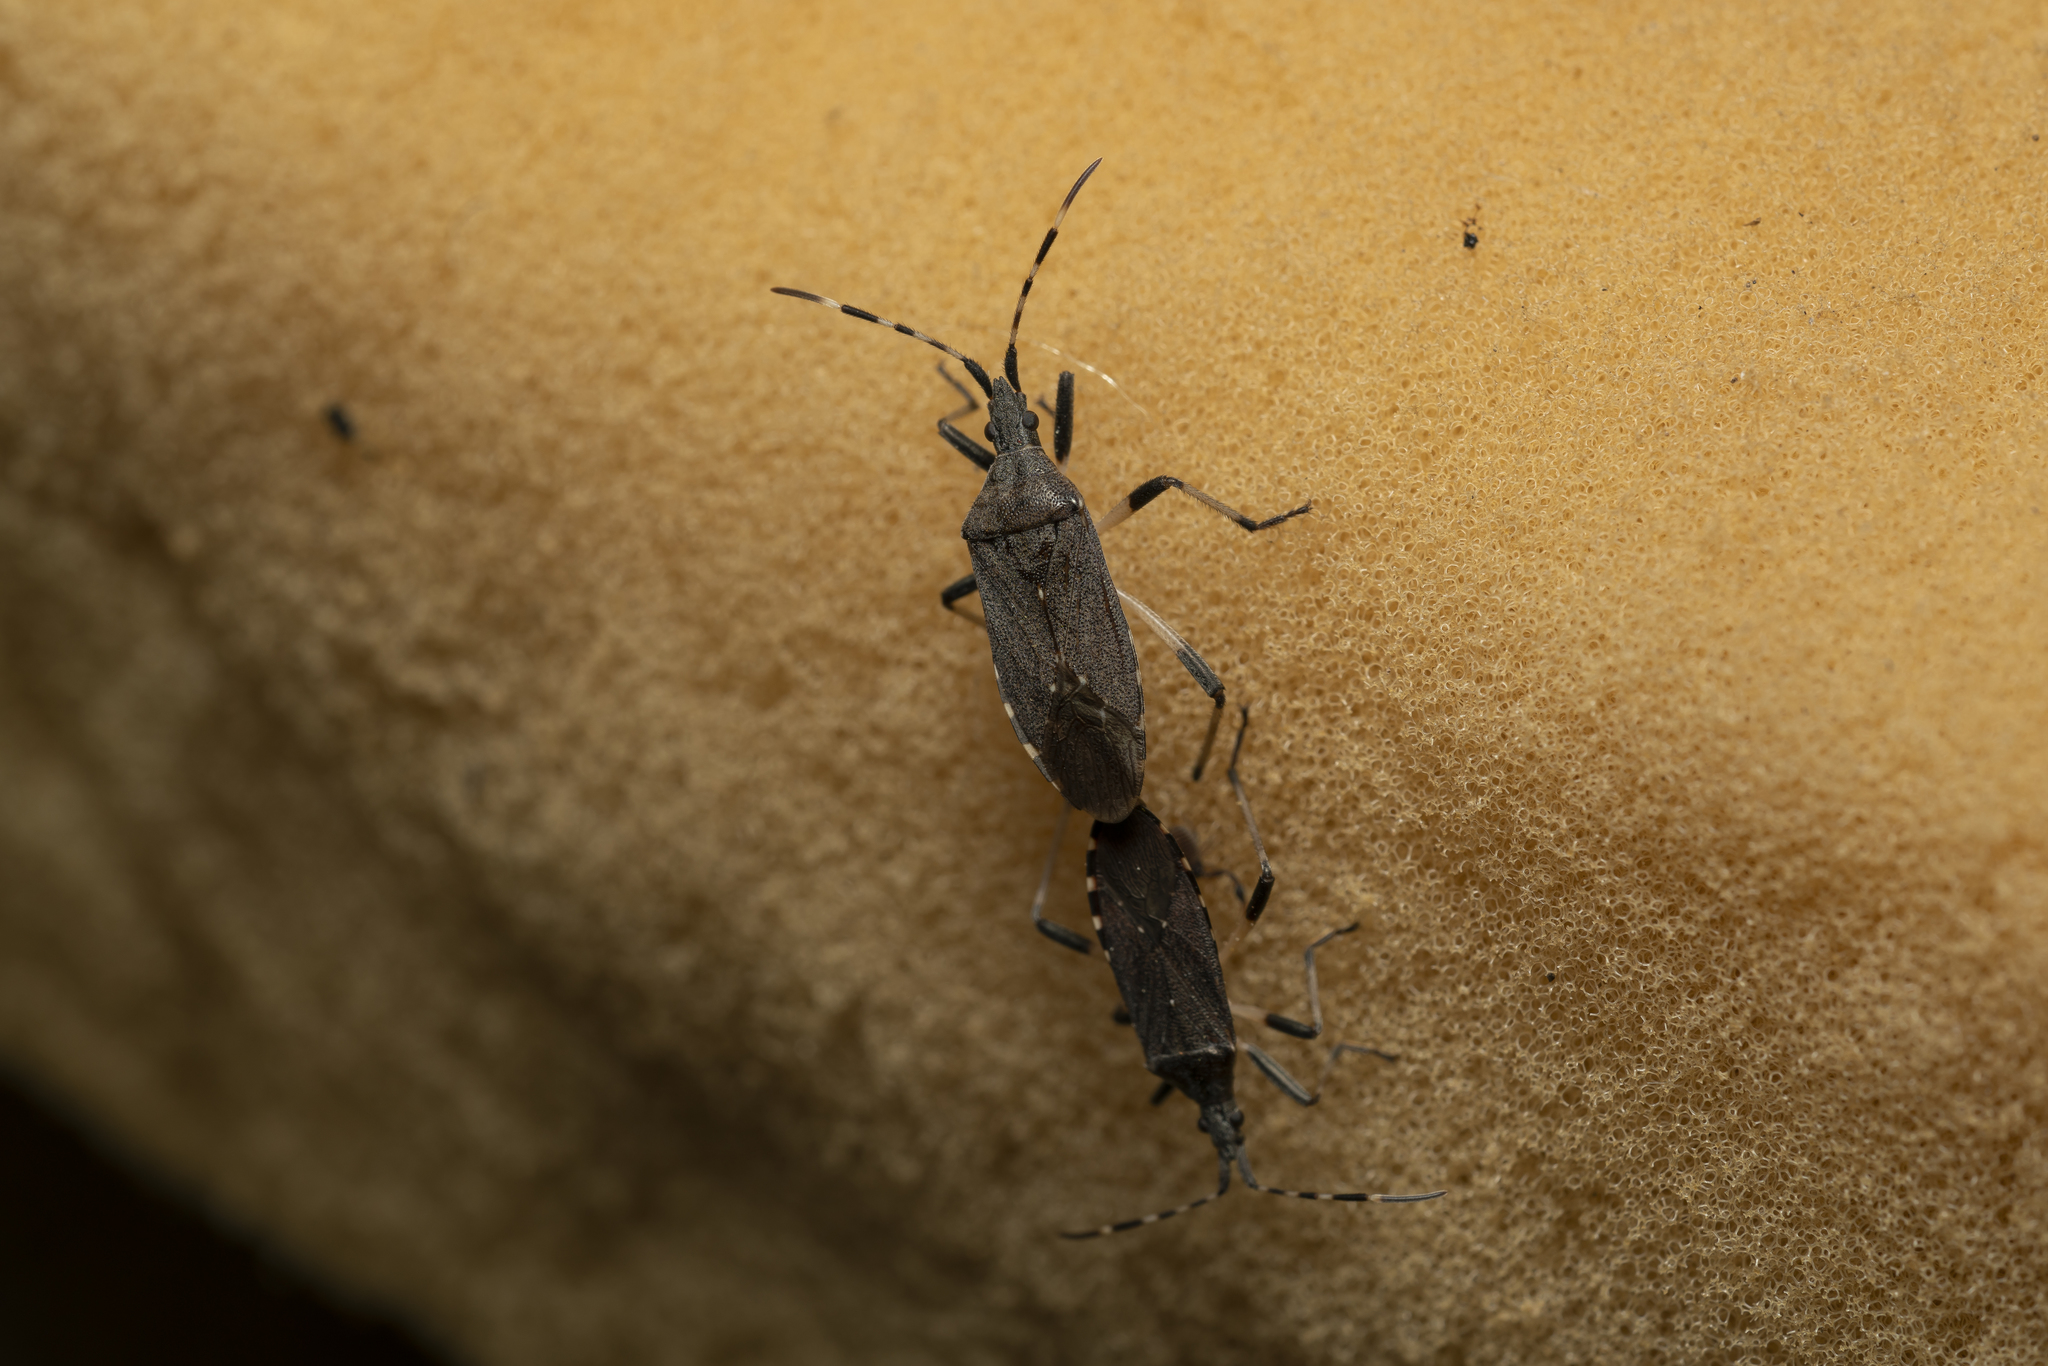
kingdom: Animalia
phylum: Arthropoda
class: Insecta
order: Hemiptera
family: Stenocephalidae
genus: Dicranocephalus
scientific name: Dicranocephalus agilis
